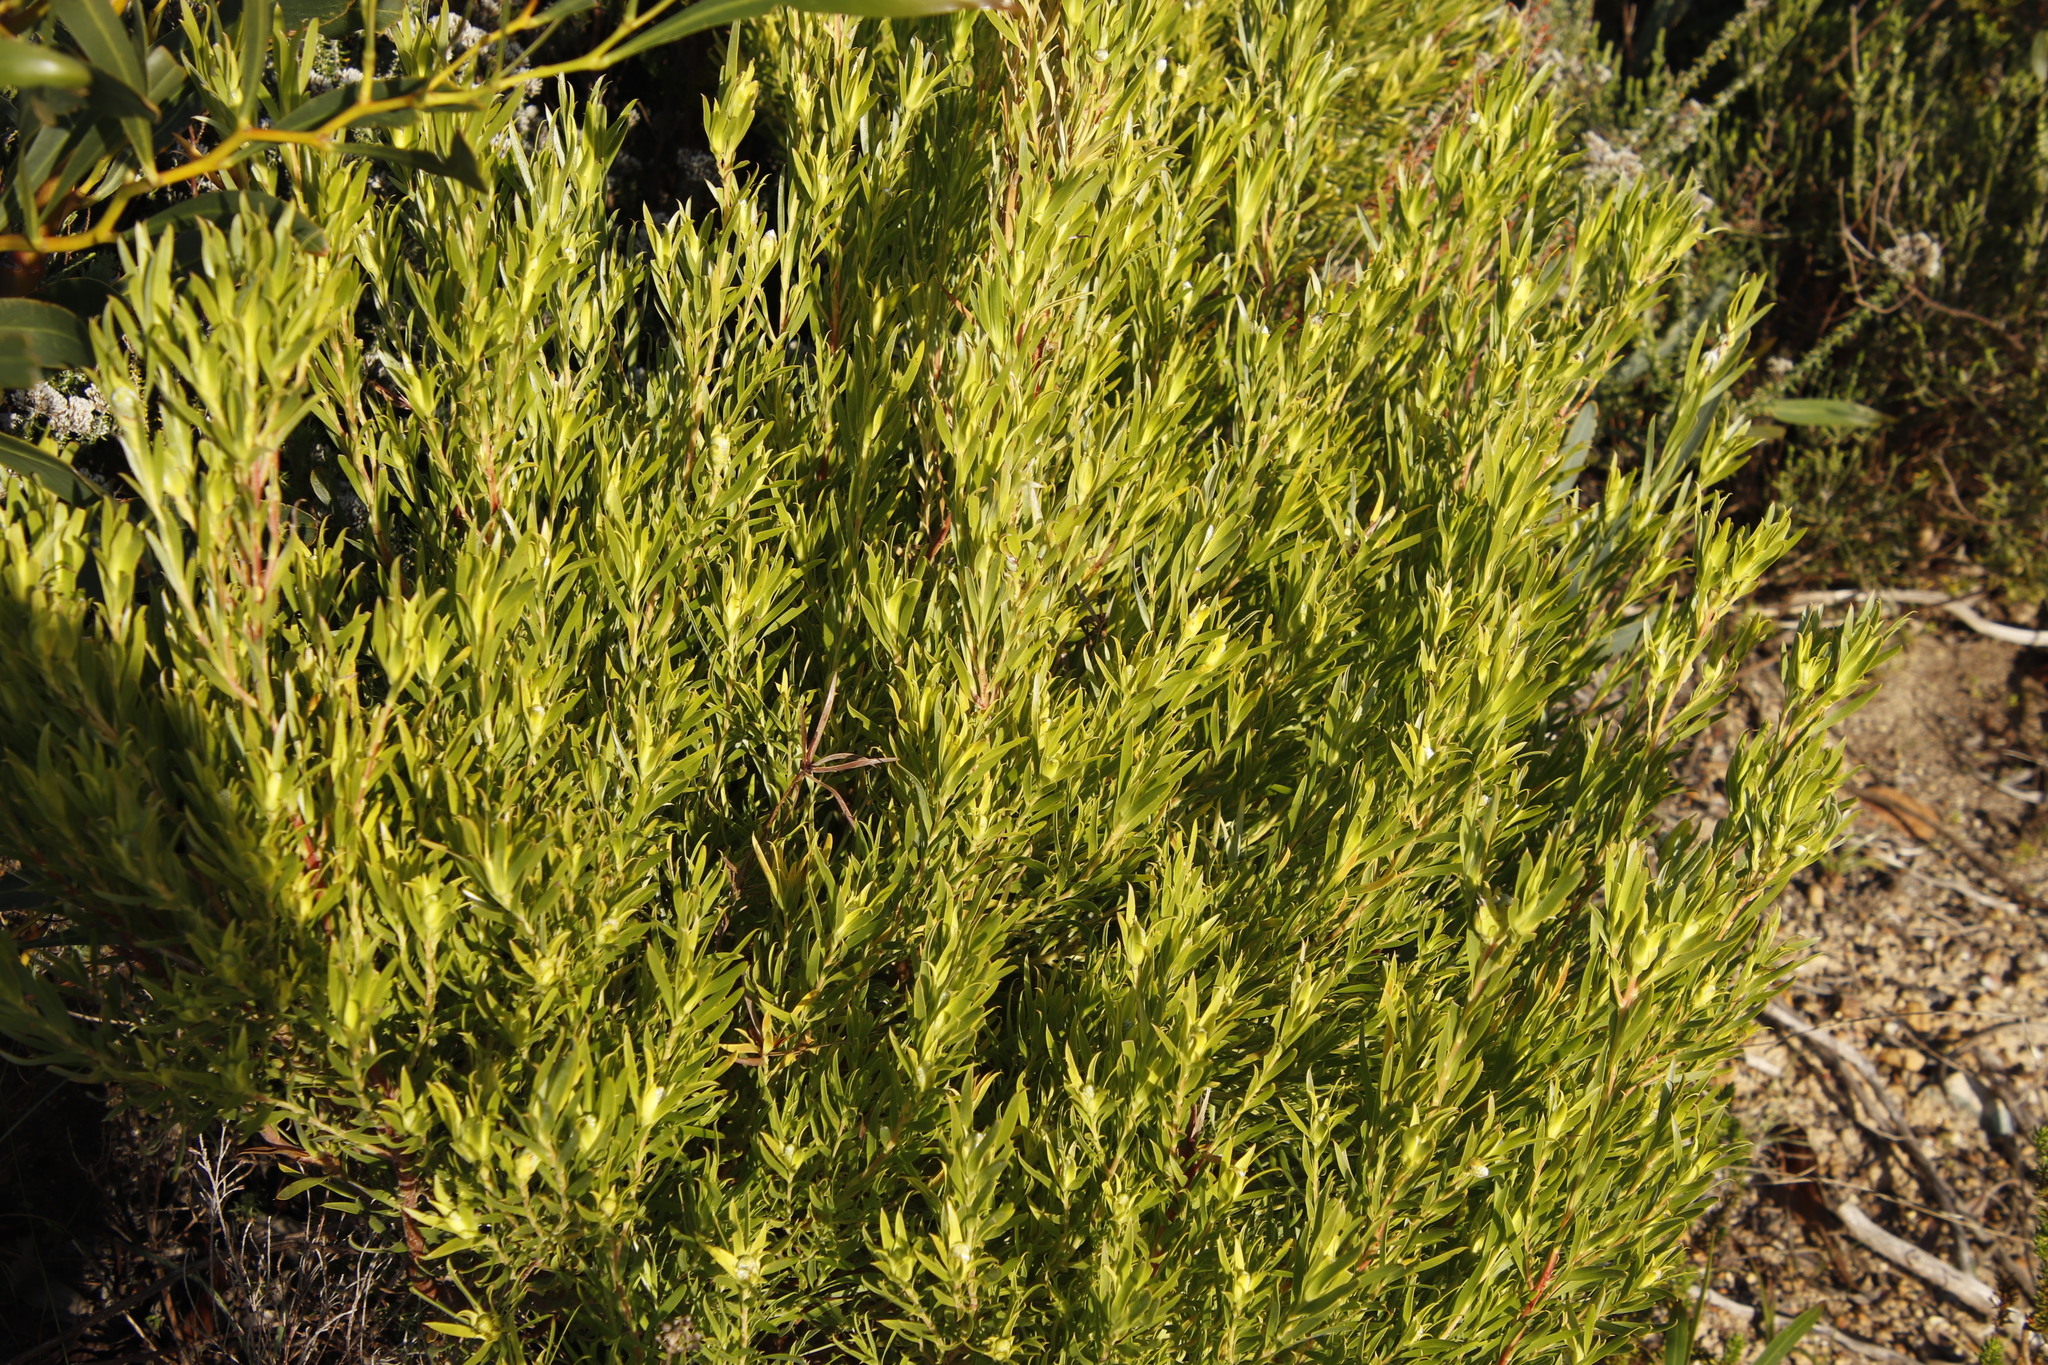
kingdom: Plantae
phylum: Tracheophyta
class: Magnoliopsida
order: Proteales
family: Proteaceae
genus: Leucadendron
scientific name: Leucadendron xanthoconus
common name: Sickle-leaf conebush
